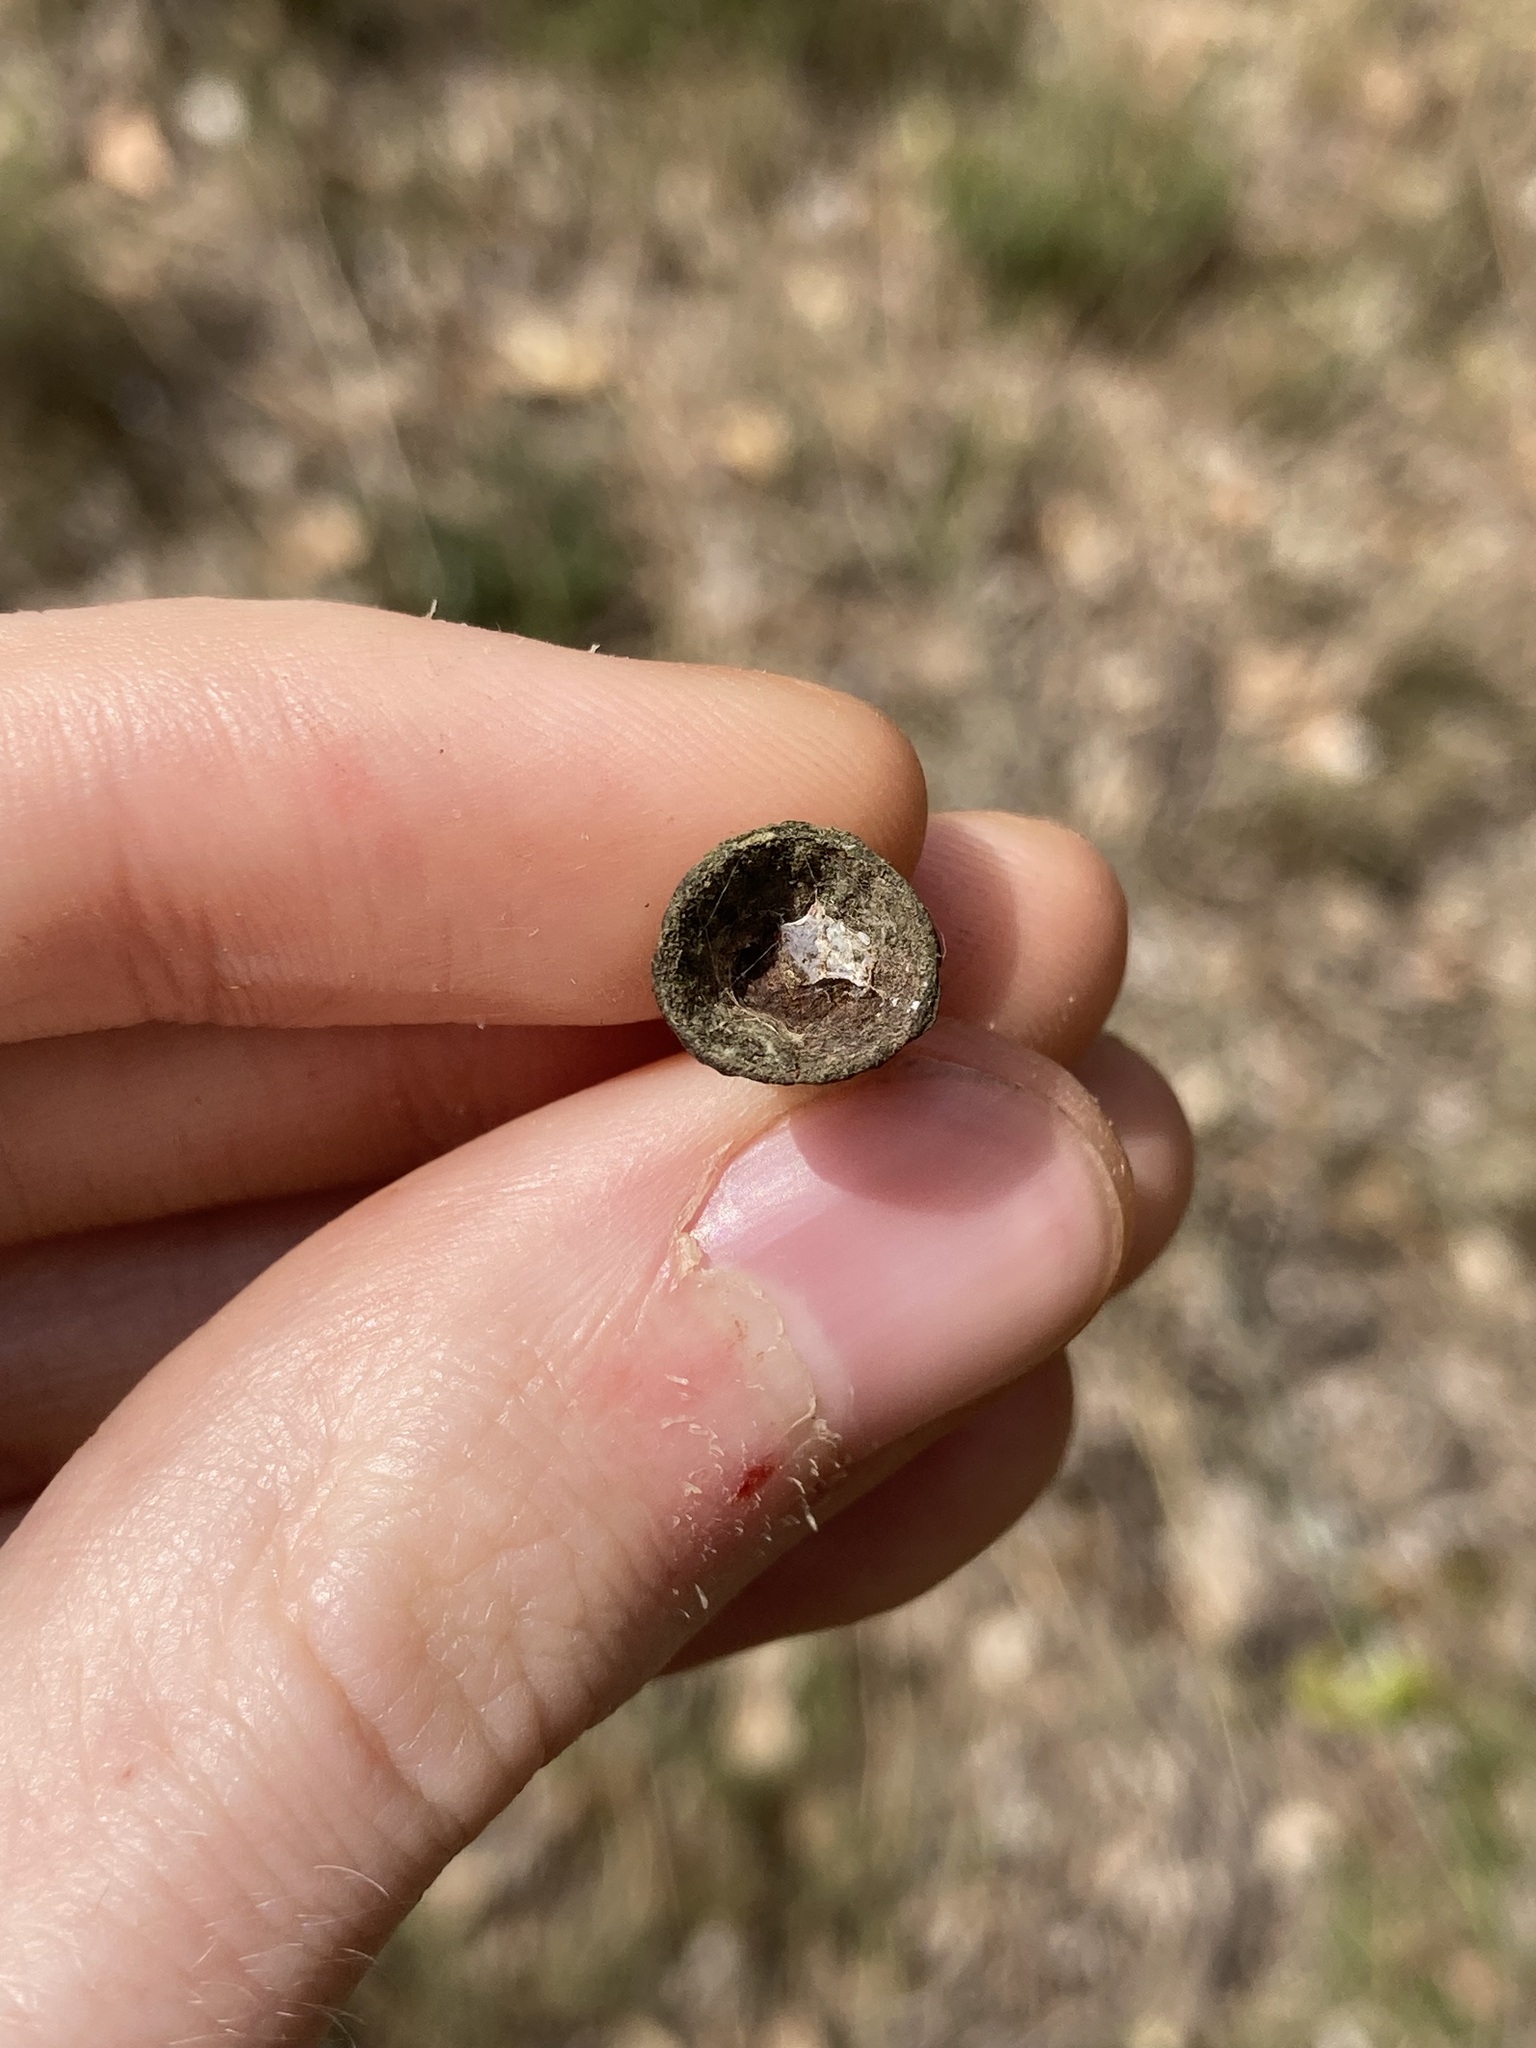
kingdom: Plantae
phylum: Tracheophyta
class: Magnoliopsida
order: Myrtales
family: Myrtaceae
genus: Corymbia
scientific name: Corymbia calophylla
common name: Marri
